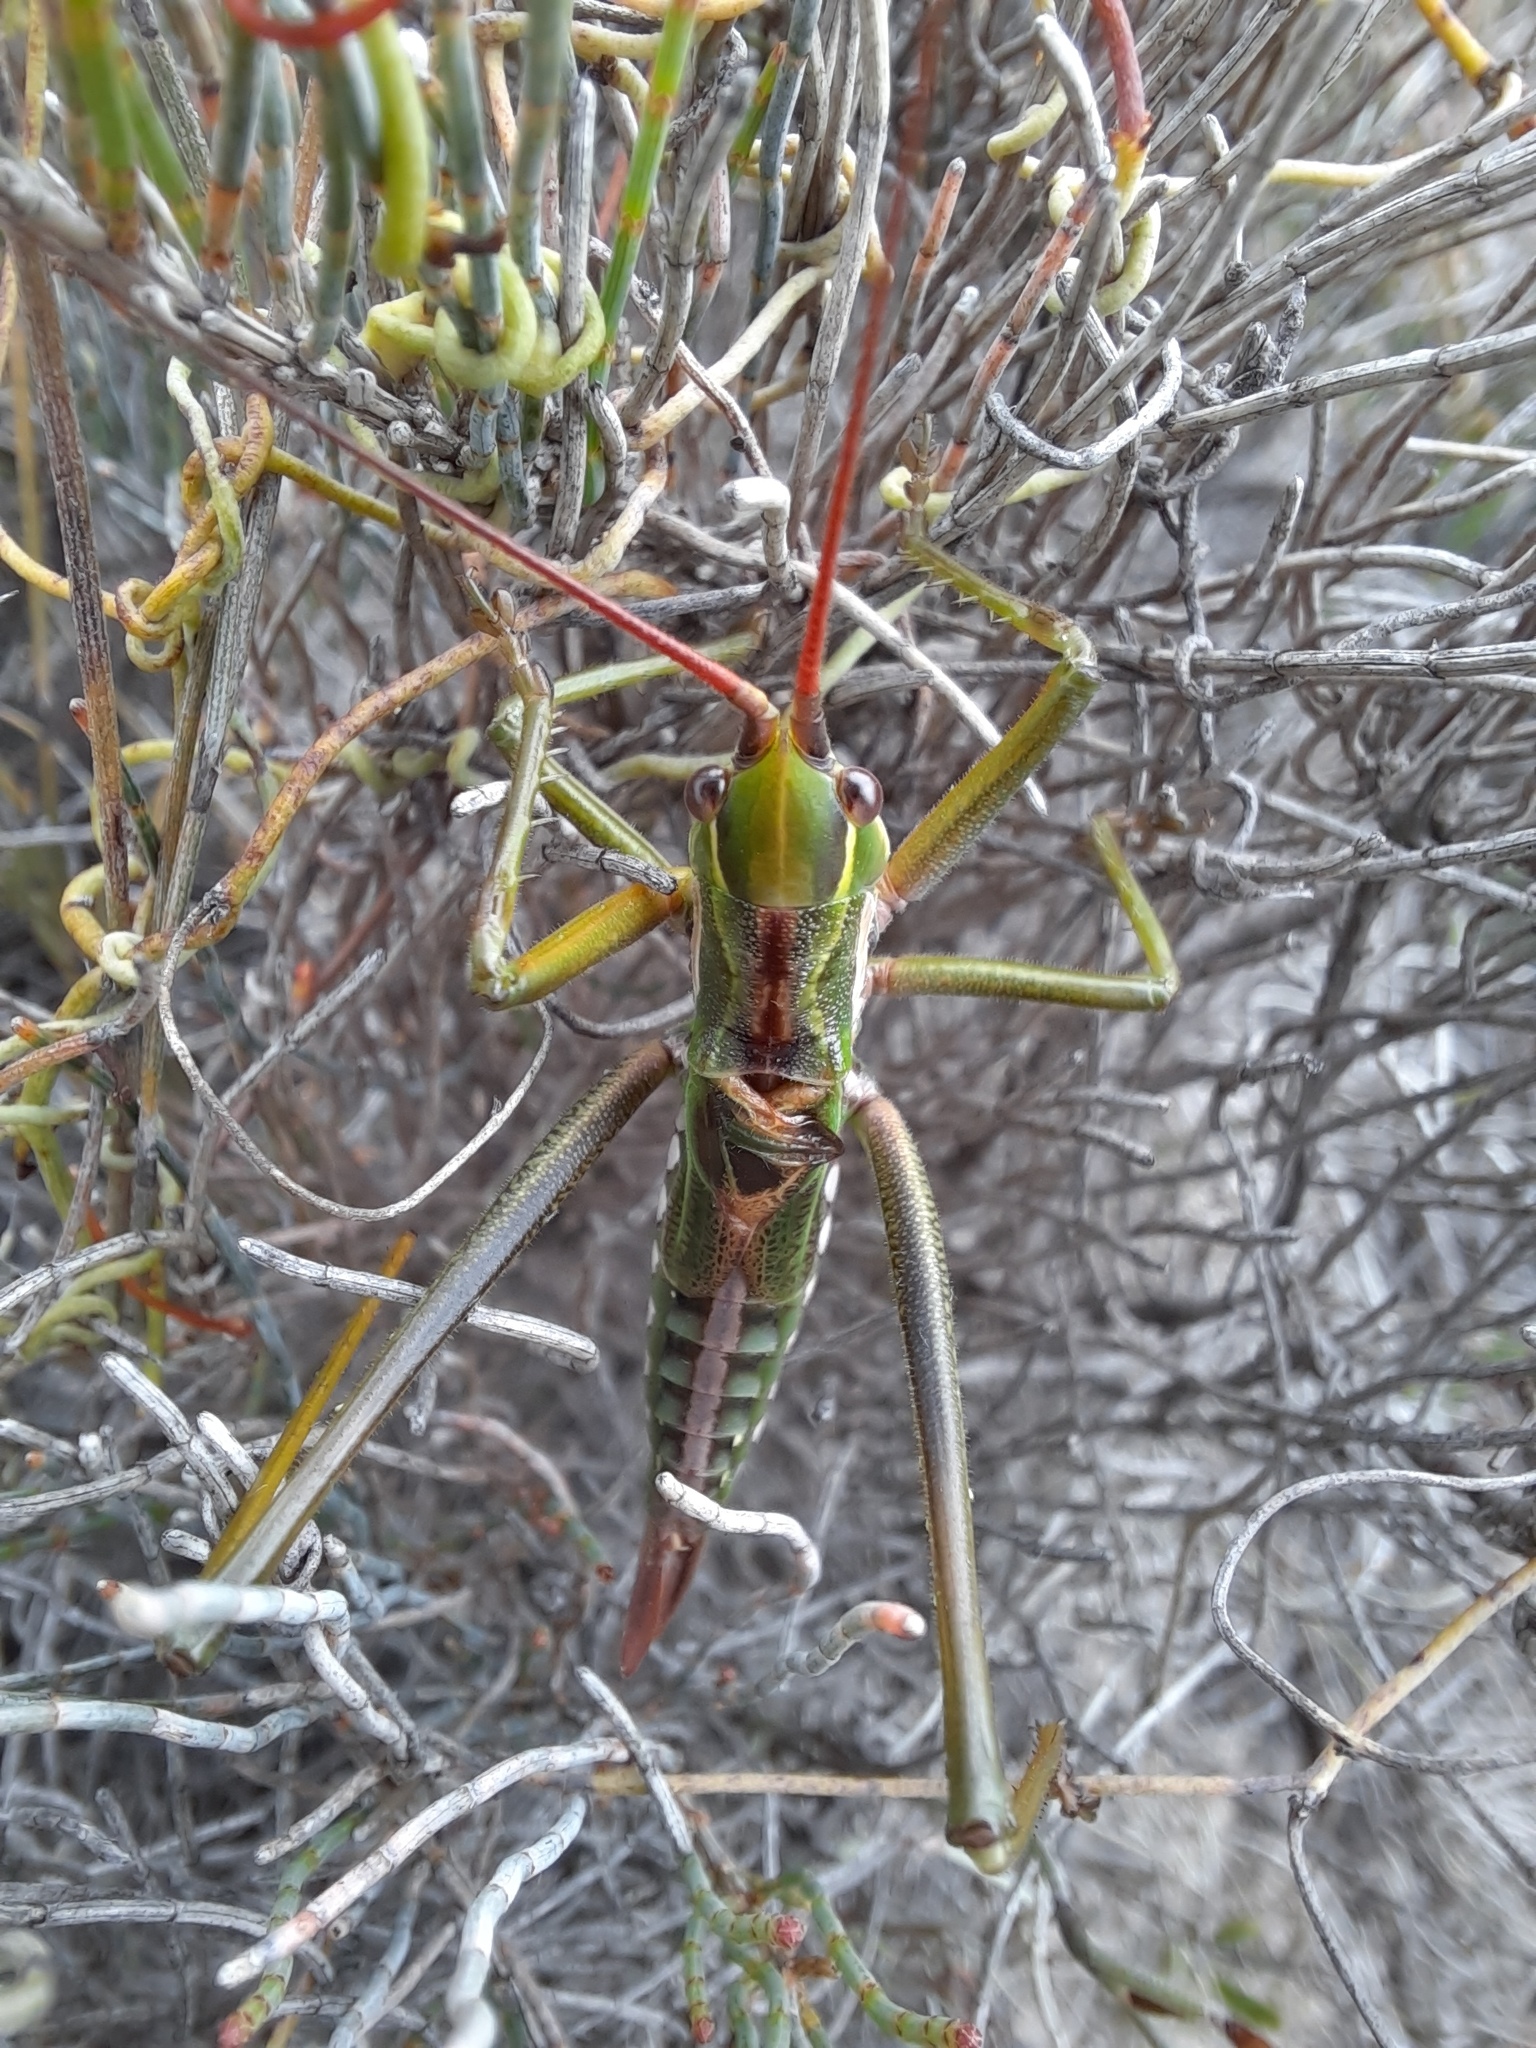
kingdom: Animalia
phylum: Arthropoda
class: Insecta
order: Orthoptera
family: Tettigoniidae
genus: Hemisaga
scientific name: Hemisaga lanceolata
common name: Victorian sluggish katydid
